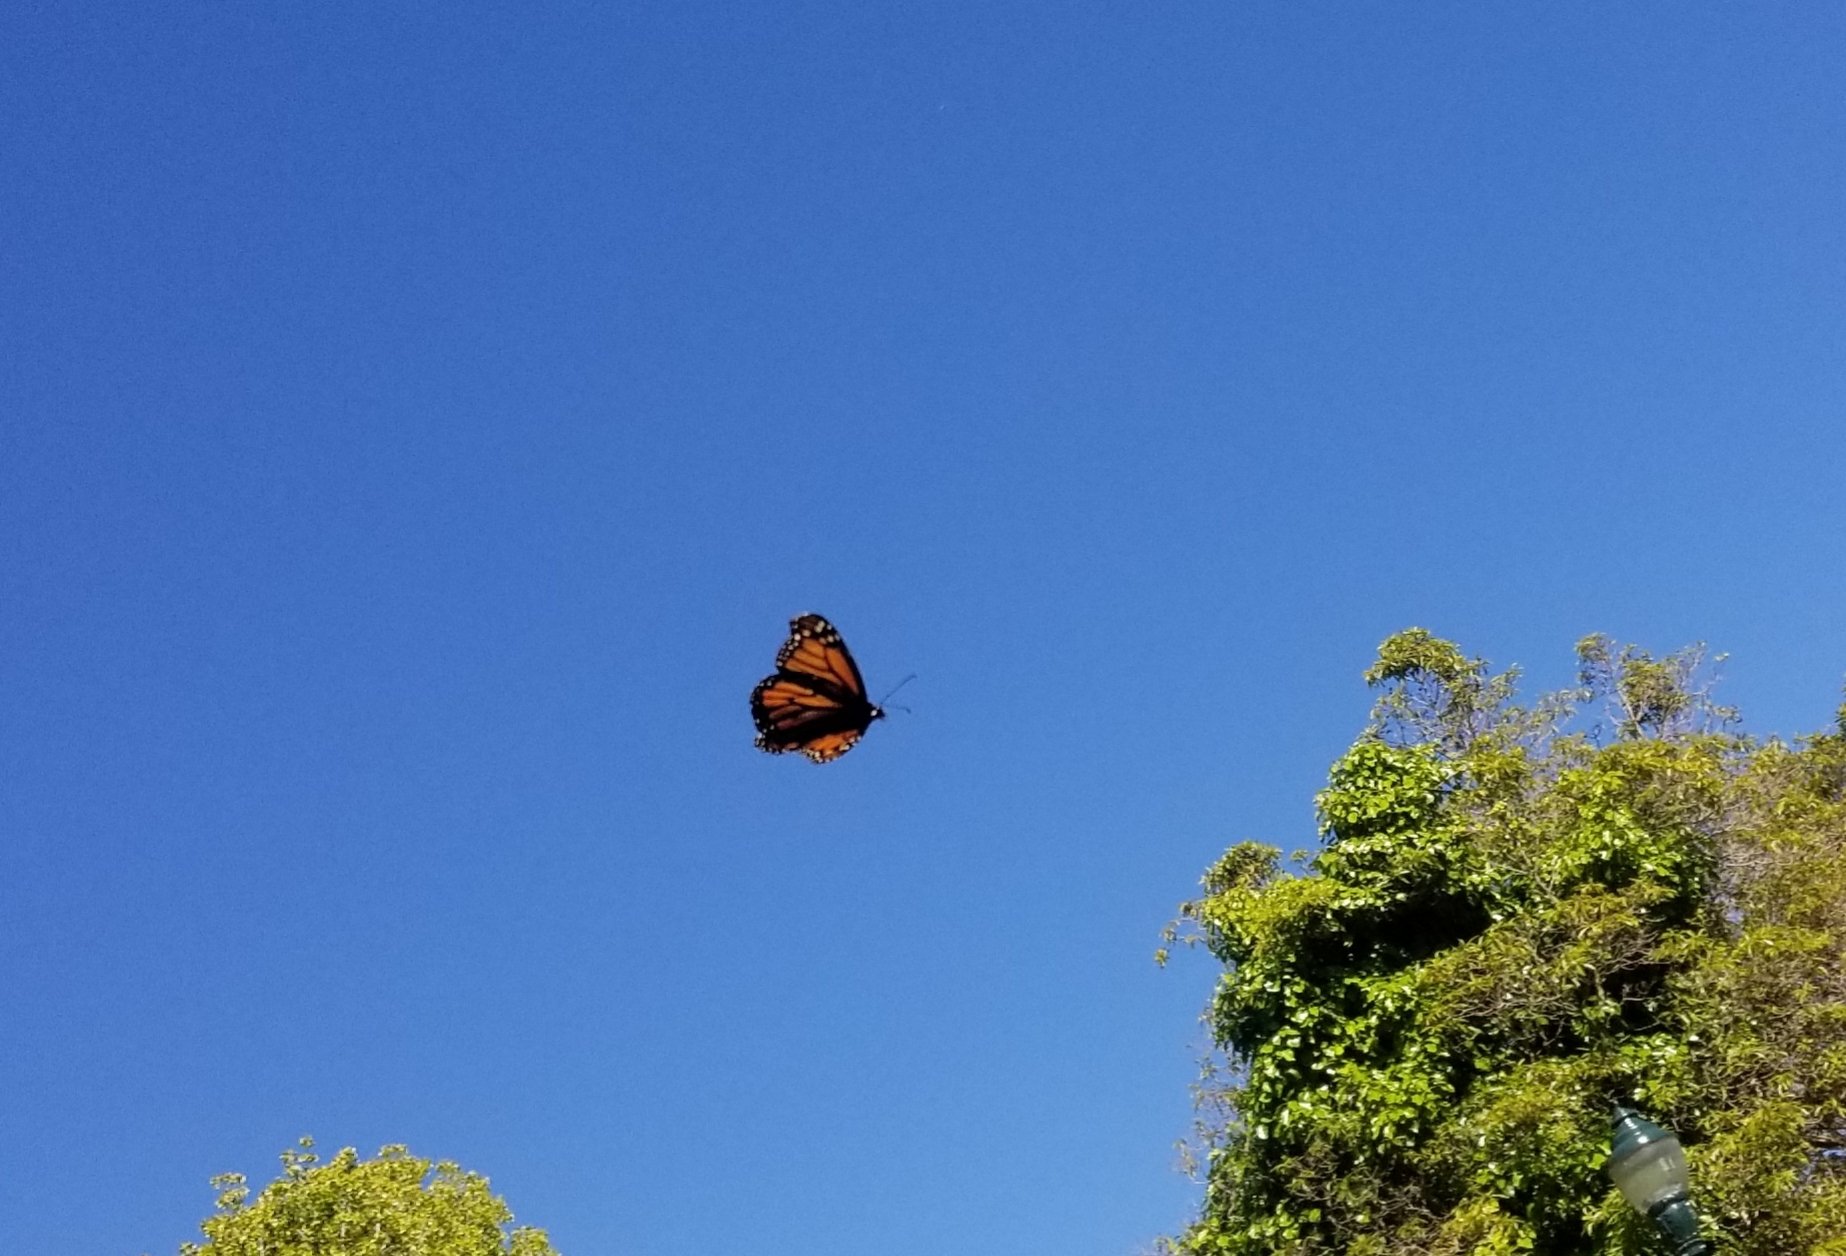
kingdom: Animalia
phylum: Arthropoda
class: Insecta
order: Lepidoptera
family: Nymphalidae
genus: Danaus
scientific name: Danaus plexippus
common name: Monarch
